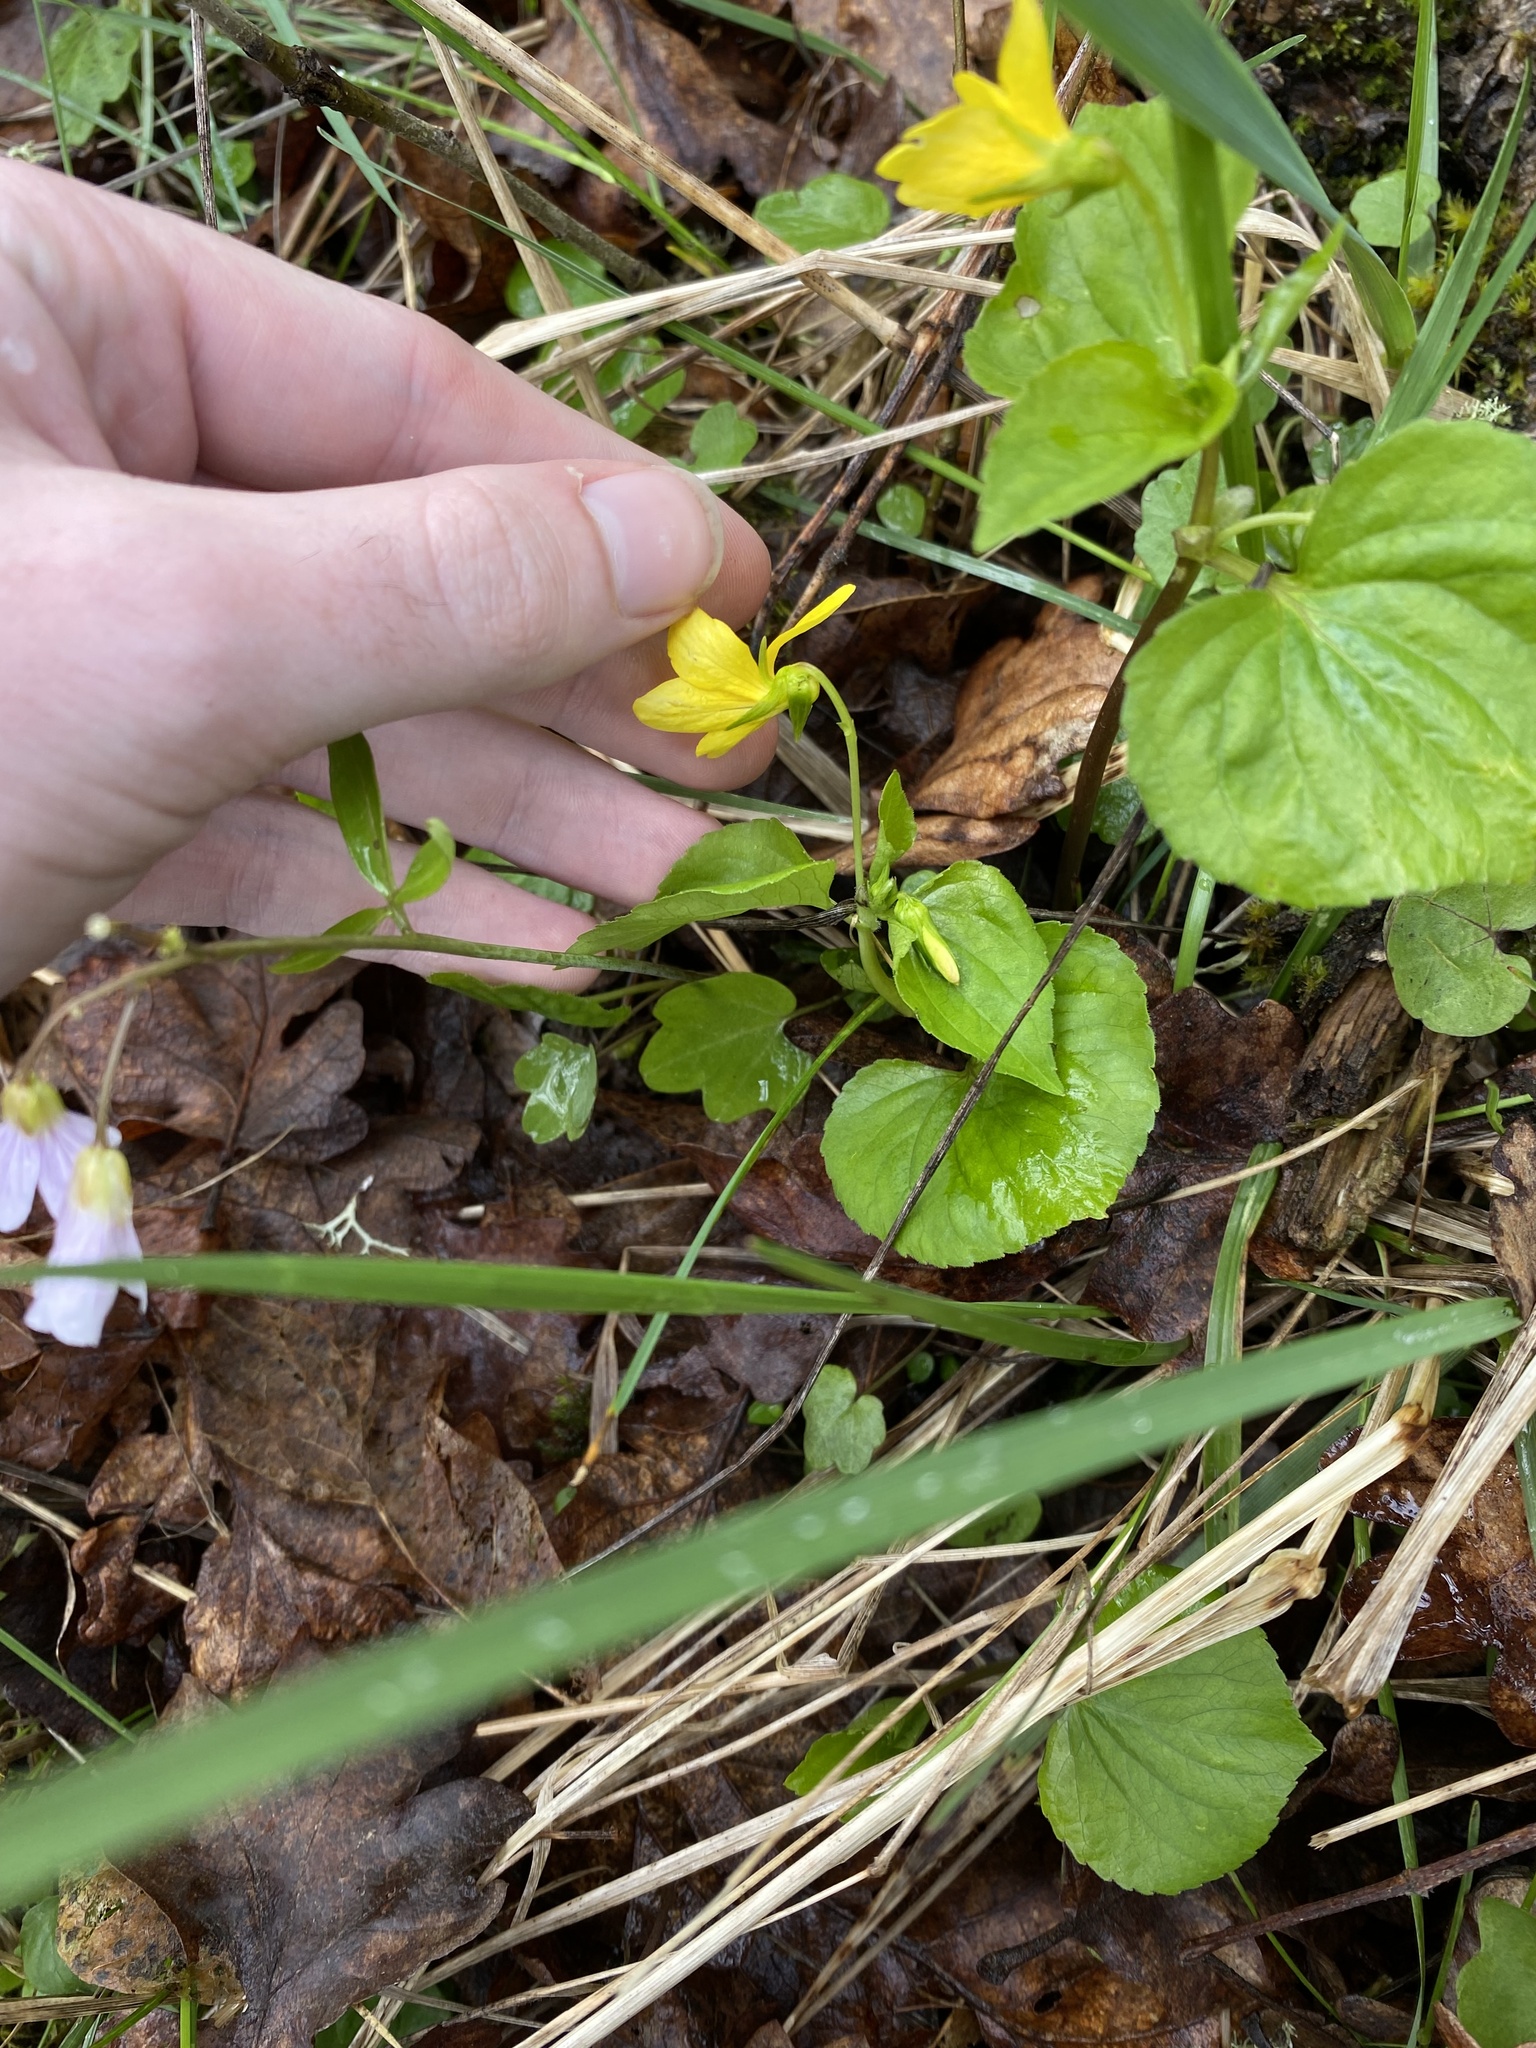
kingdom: Plantae
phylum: Tracheophyta
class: Magnoliopsida
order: Malpighiales
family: Violaceae
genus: Viola
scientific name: Viola glabella
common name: Stream violet
